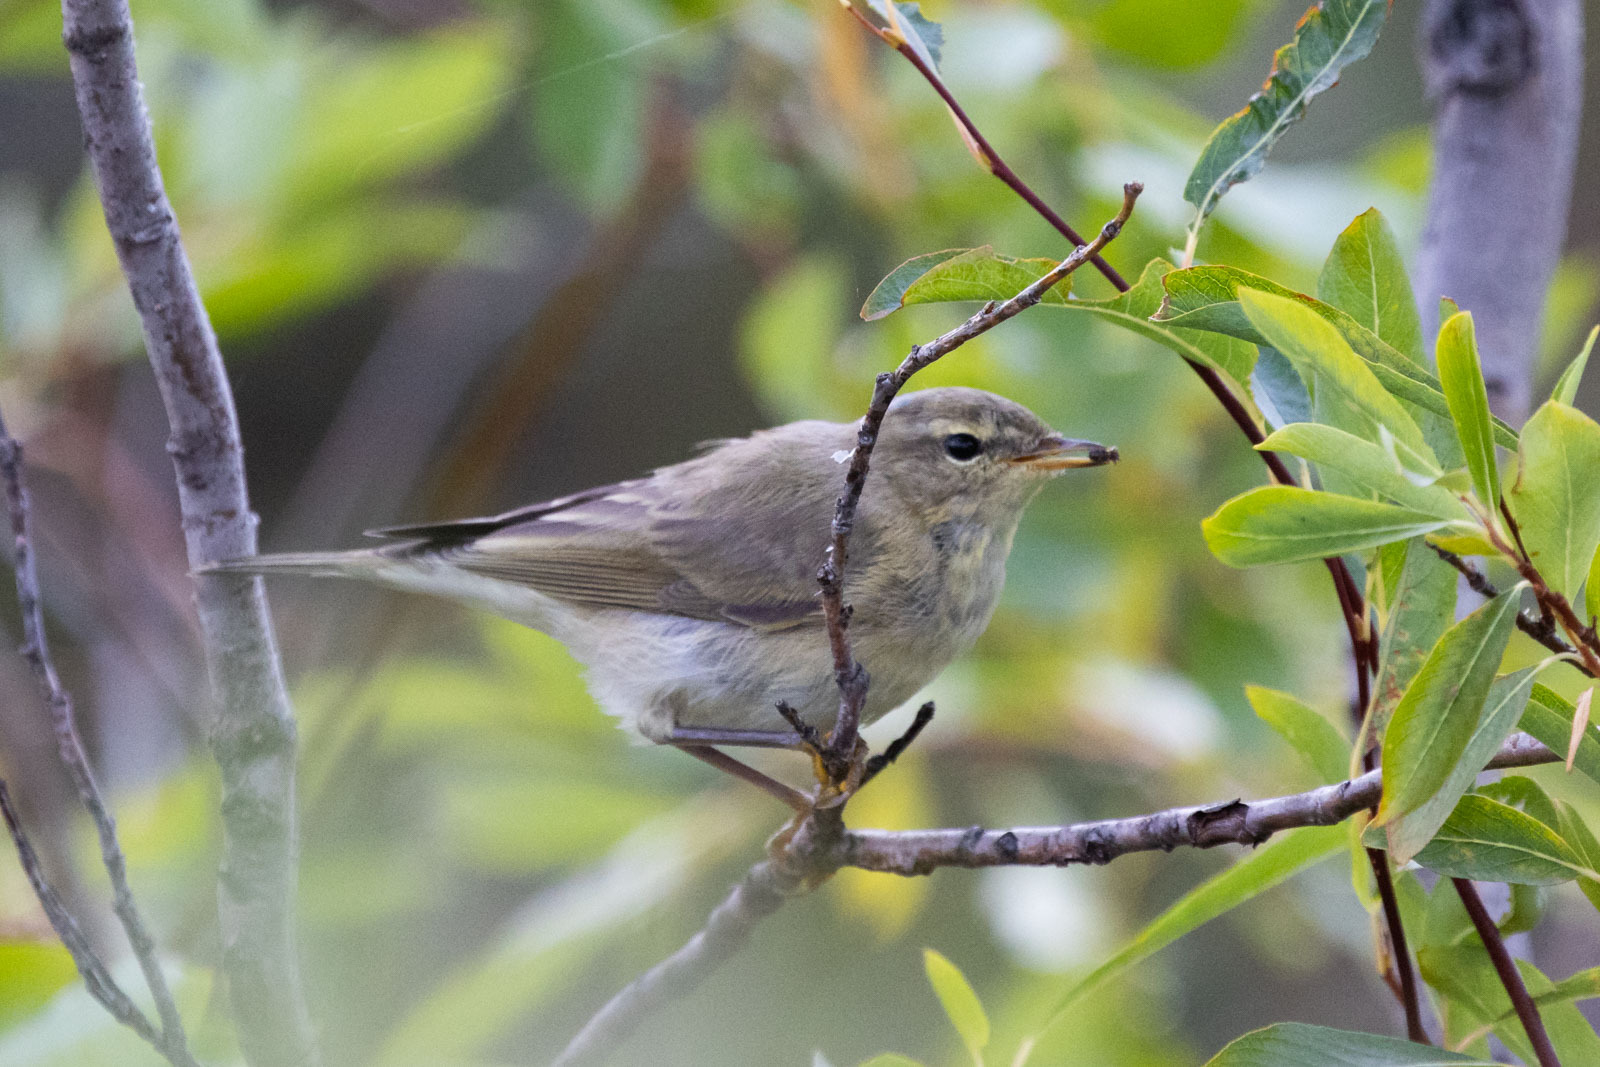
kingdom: Animalia
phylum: Chordata
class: Aves
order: Passeriformes
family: Phylloscopidae
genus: Phylloscopus
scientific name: Phylloscopus trochilus
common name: Willow warbler
